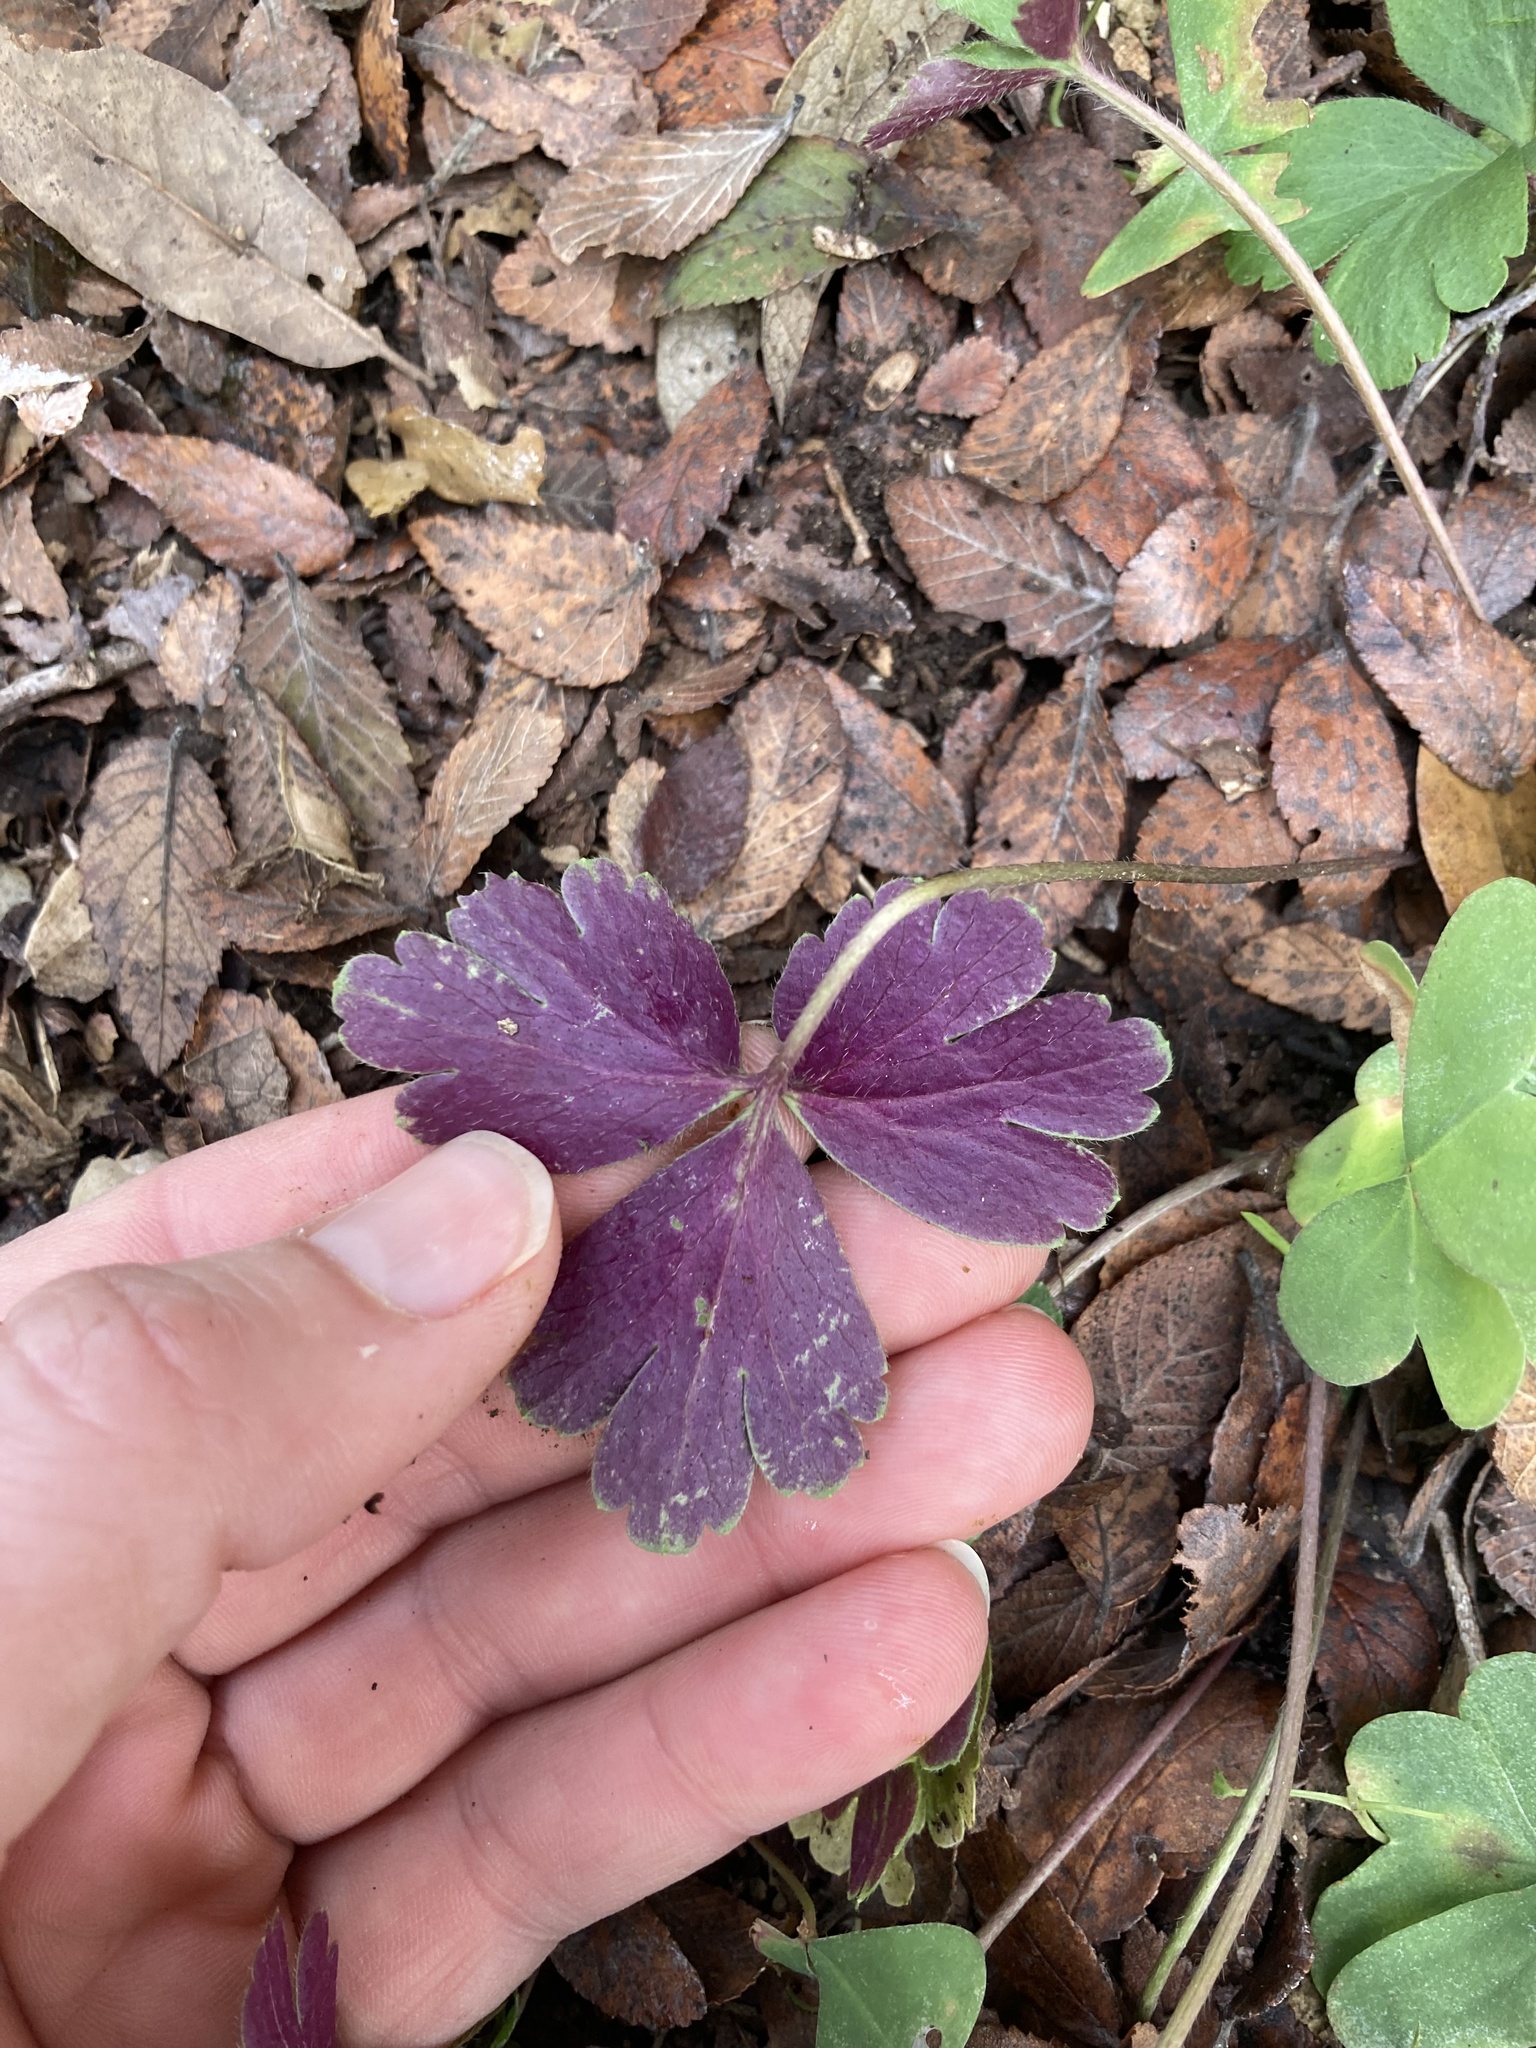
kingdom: Plantae
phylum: Tracheophyta
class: Magnoliopsida
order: Ranunculales
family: Ranunculaceae
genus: Anemone
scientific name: Anemone berlandieri
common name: Ten-petal anemone
